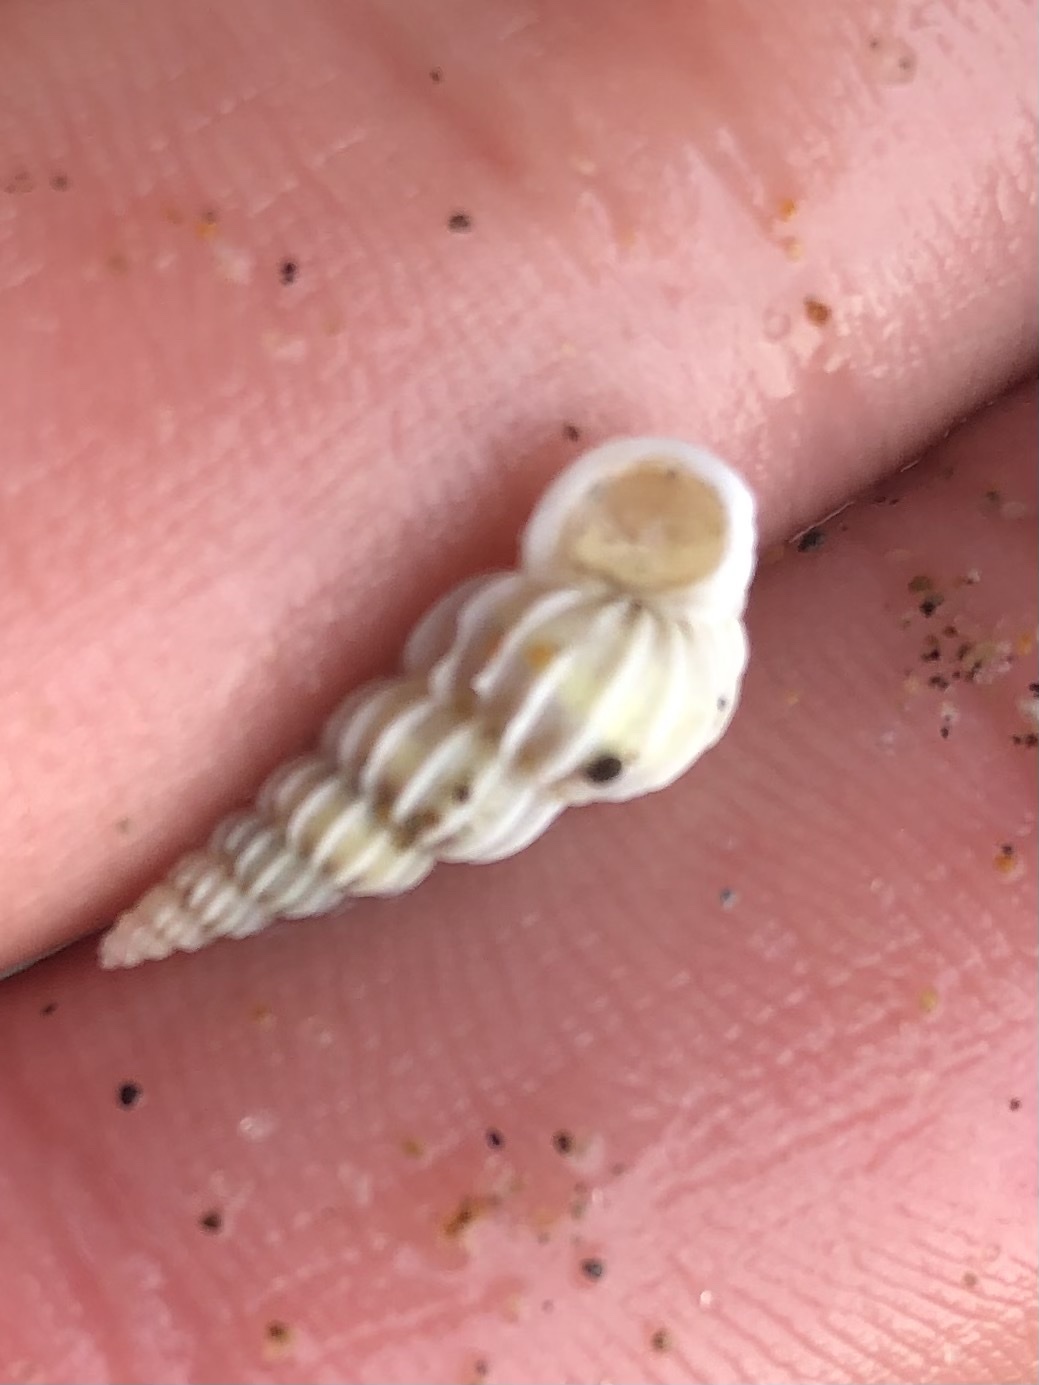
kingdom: Animalia
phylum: Mollusca
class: Gastropoda
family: Epitoniidae
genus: Epitonium
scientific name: Epitonium indianorum
